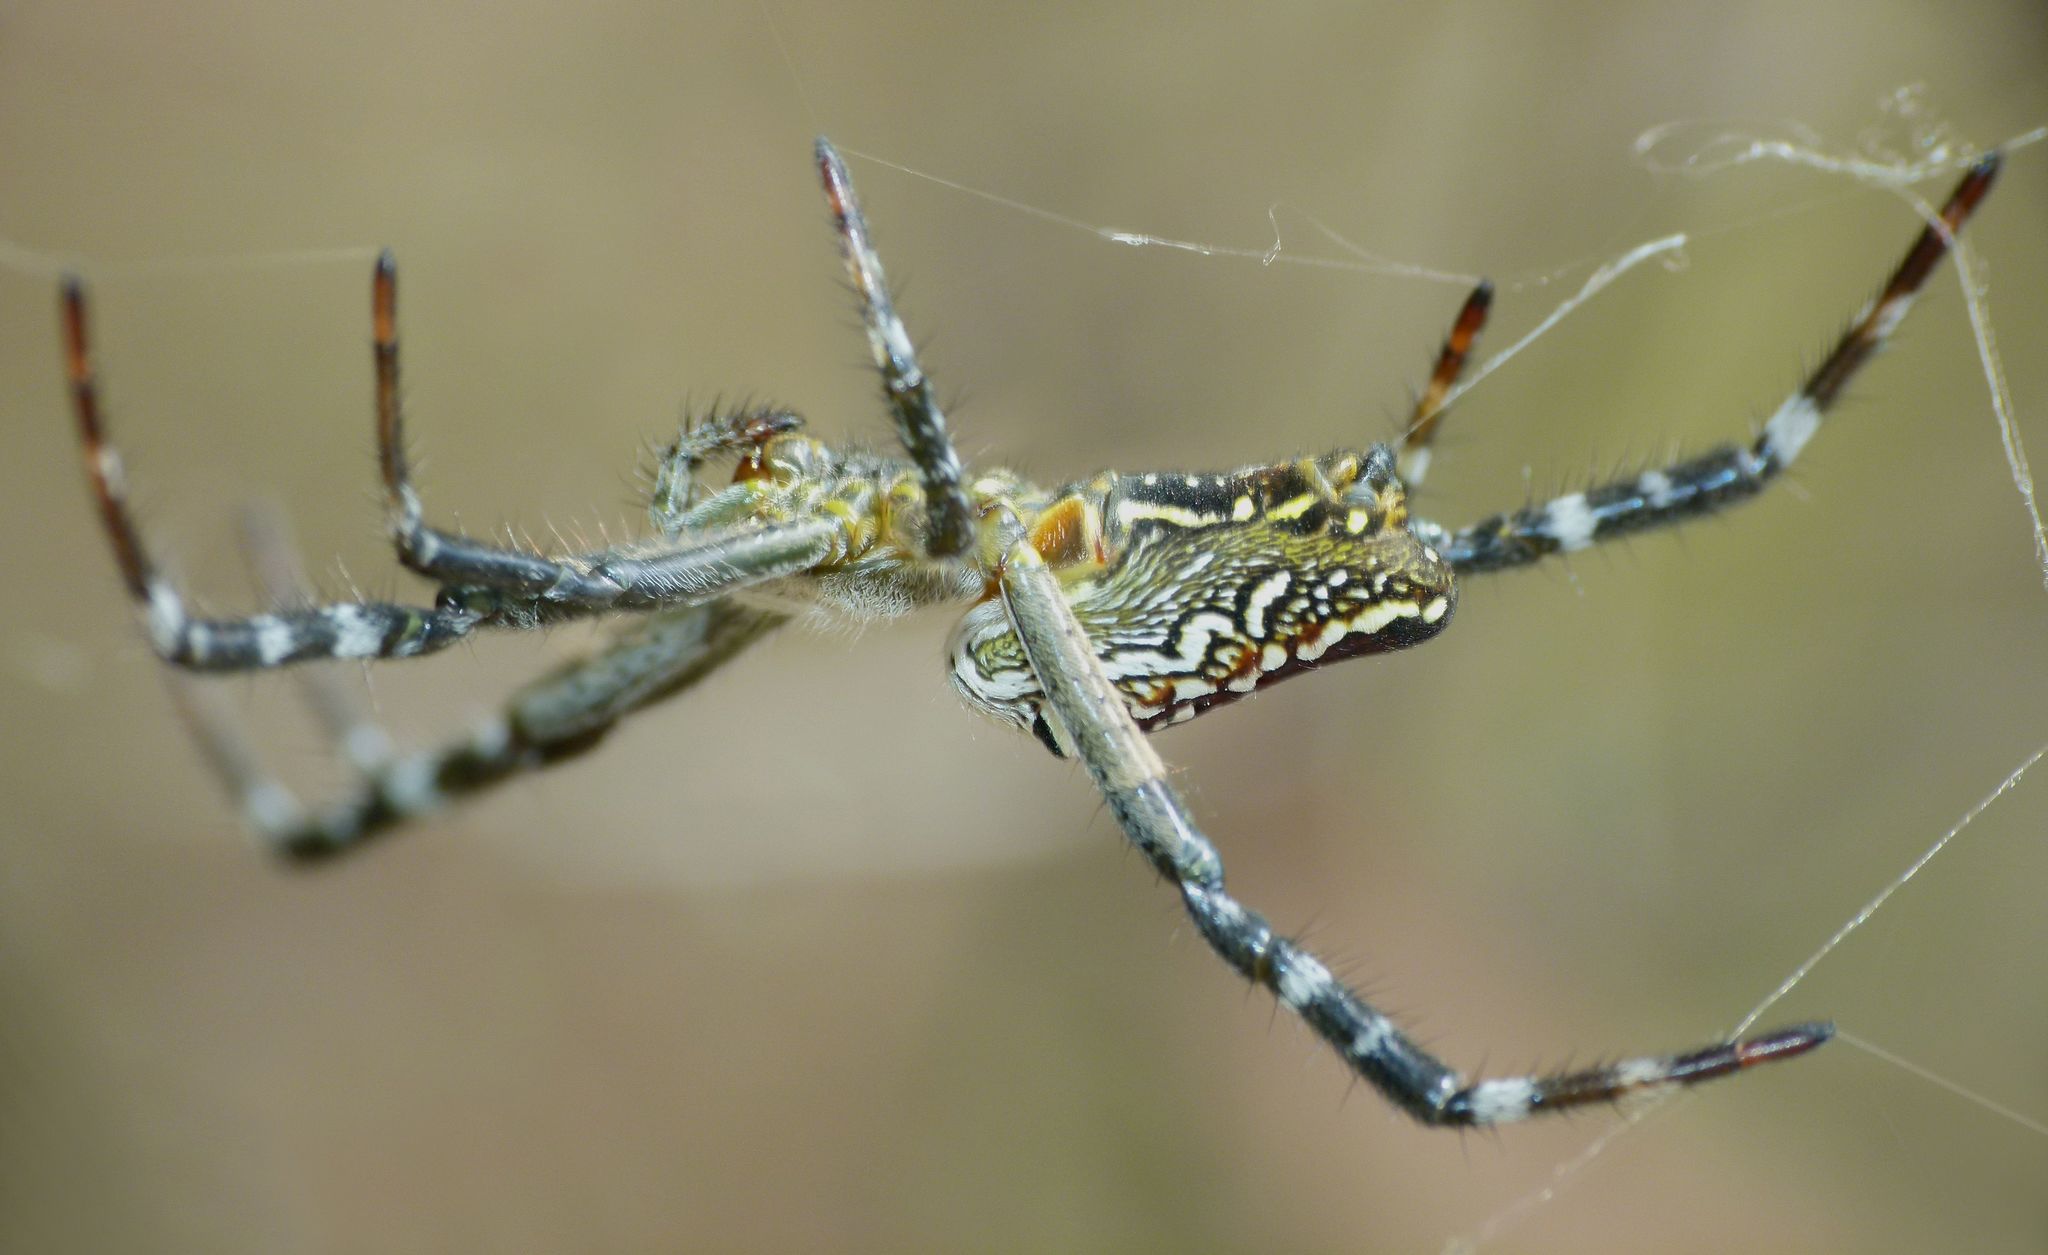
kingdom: Chromista
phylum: Ochrophyta
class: Dictyochophyceae
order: Pedinellales
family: Cyrtophoraceae
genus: Cyrtophora
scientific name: Cyrtophora moluccensis
